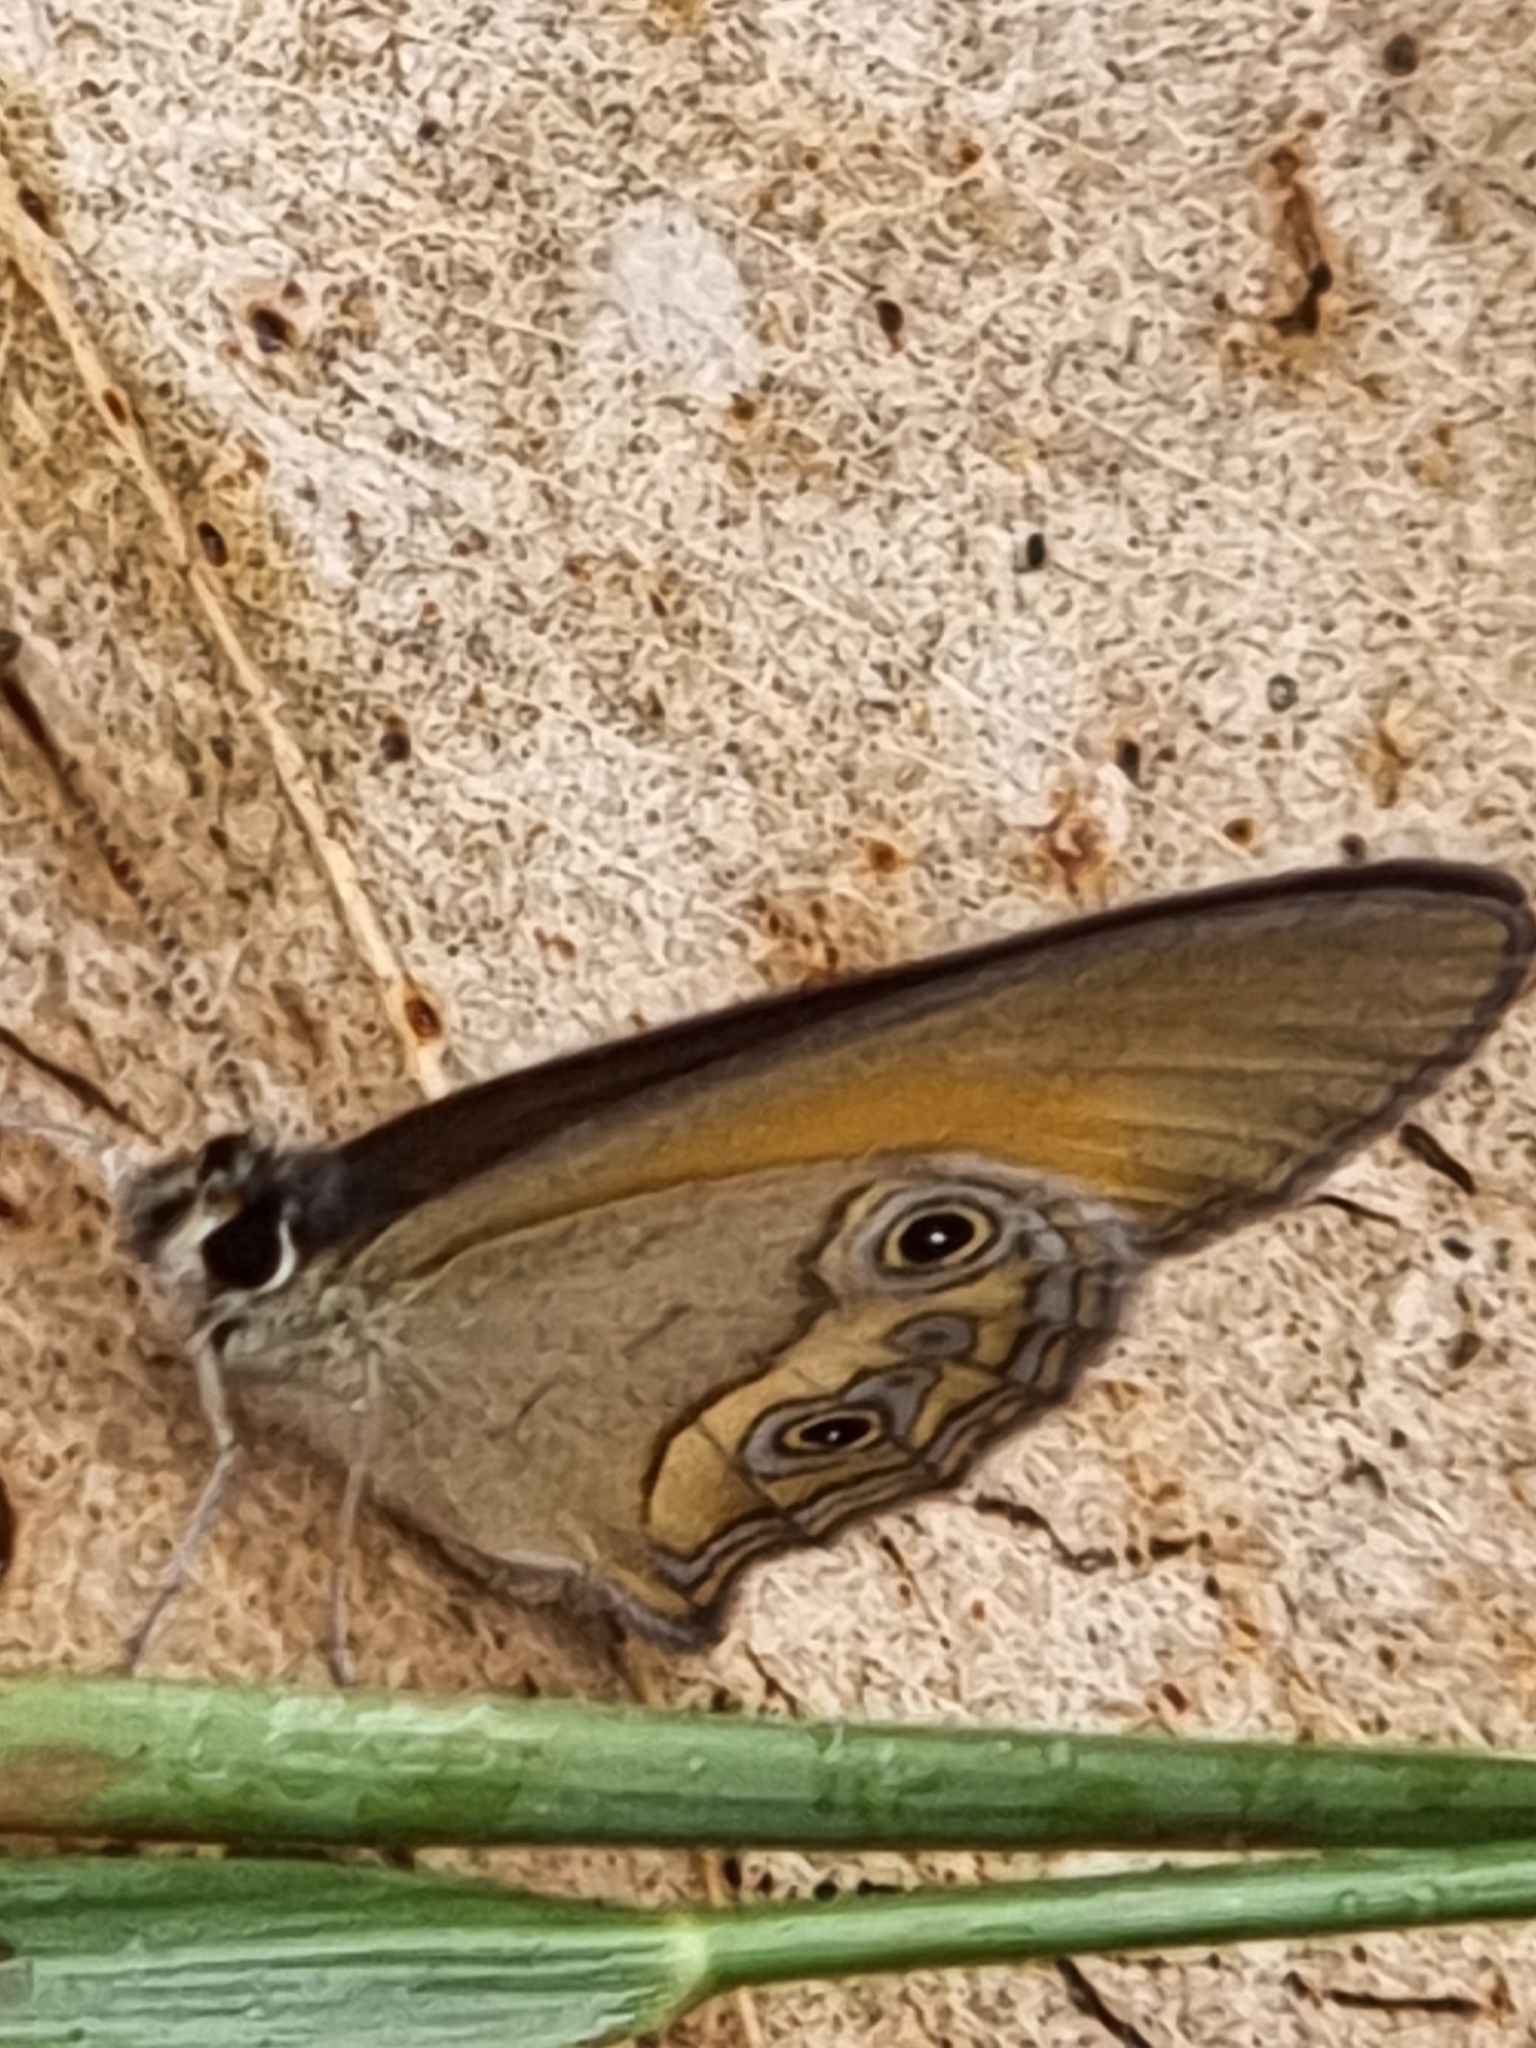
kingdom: Animalia
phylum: Arthropoda
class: Insecta
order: Lepidoptera
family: Nymphalidae
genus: Hypocysta
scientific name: Hypocysta adiante
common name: Orange ringlet
